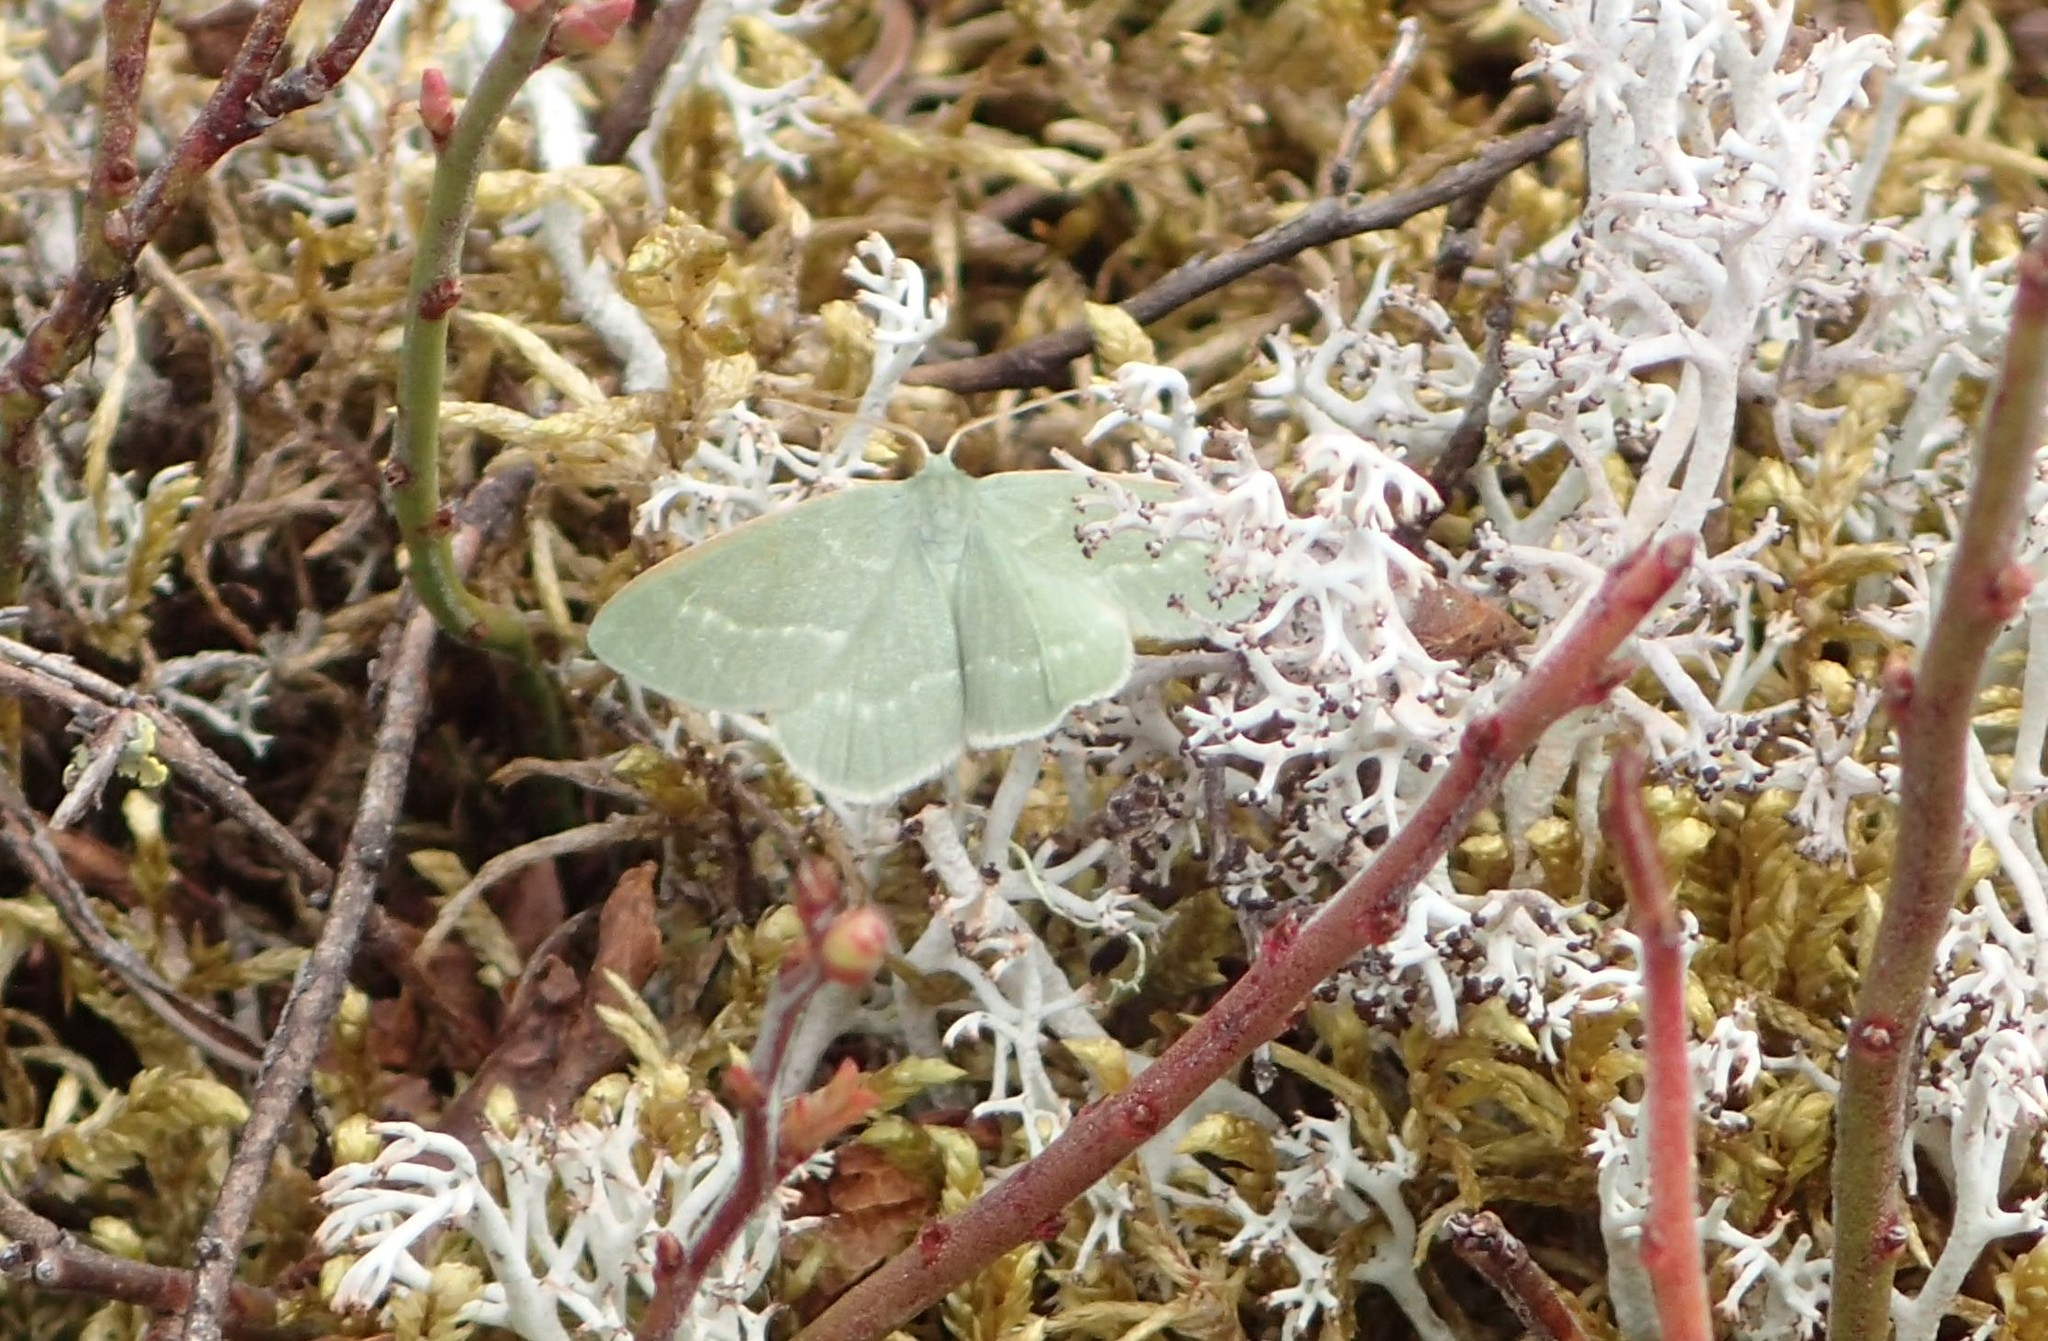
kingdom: Animalia
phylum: Arthropoda
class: Insecta
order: Lepidoptera
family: Geometridae
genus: Mesothea
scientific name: Mesothea incertata
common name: Day emerald moth
